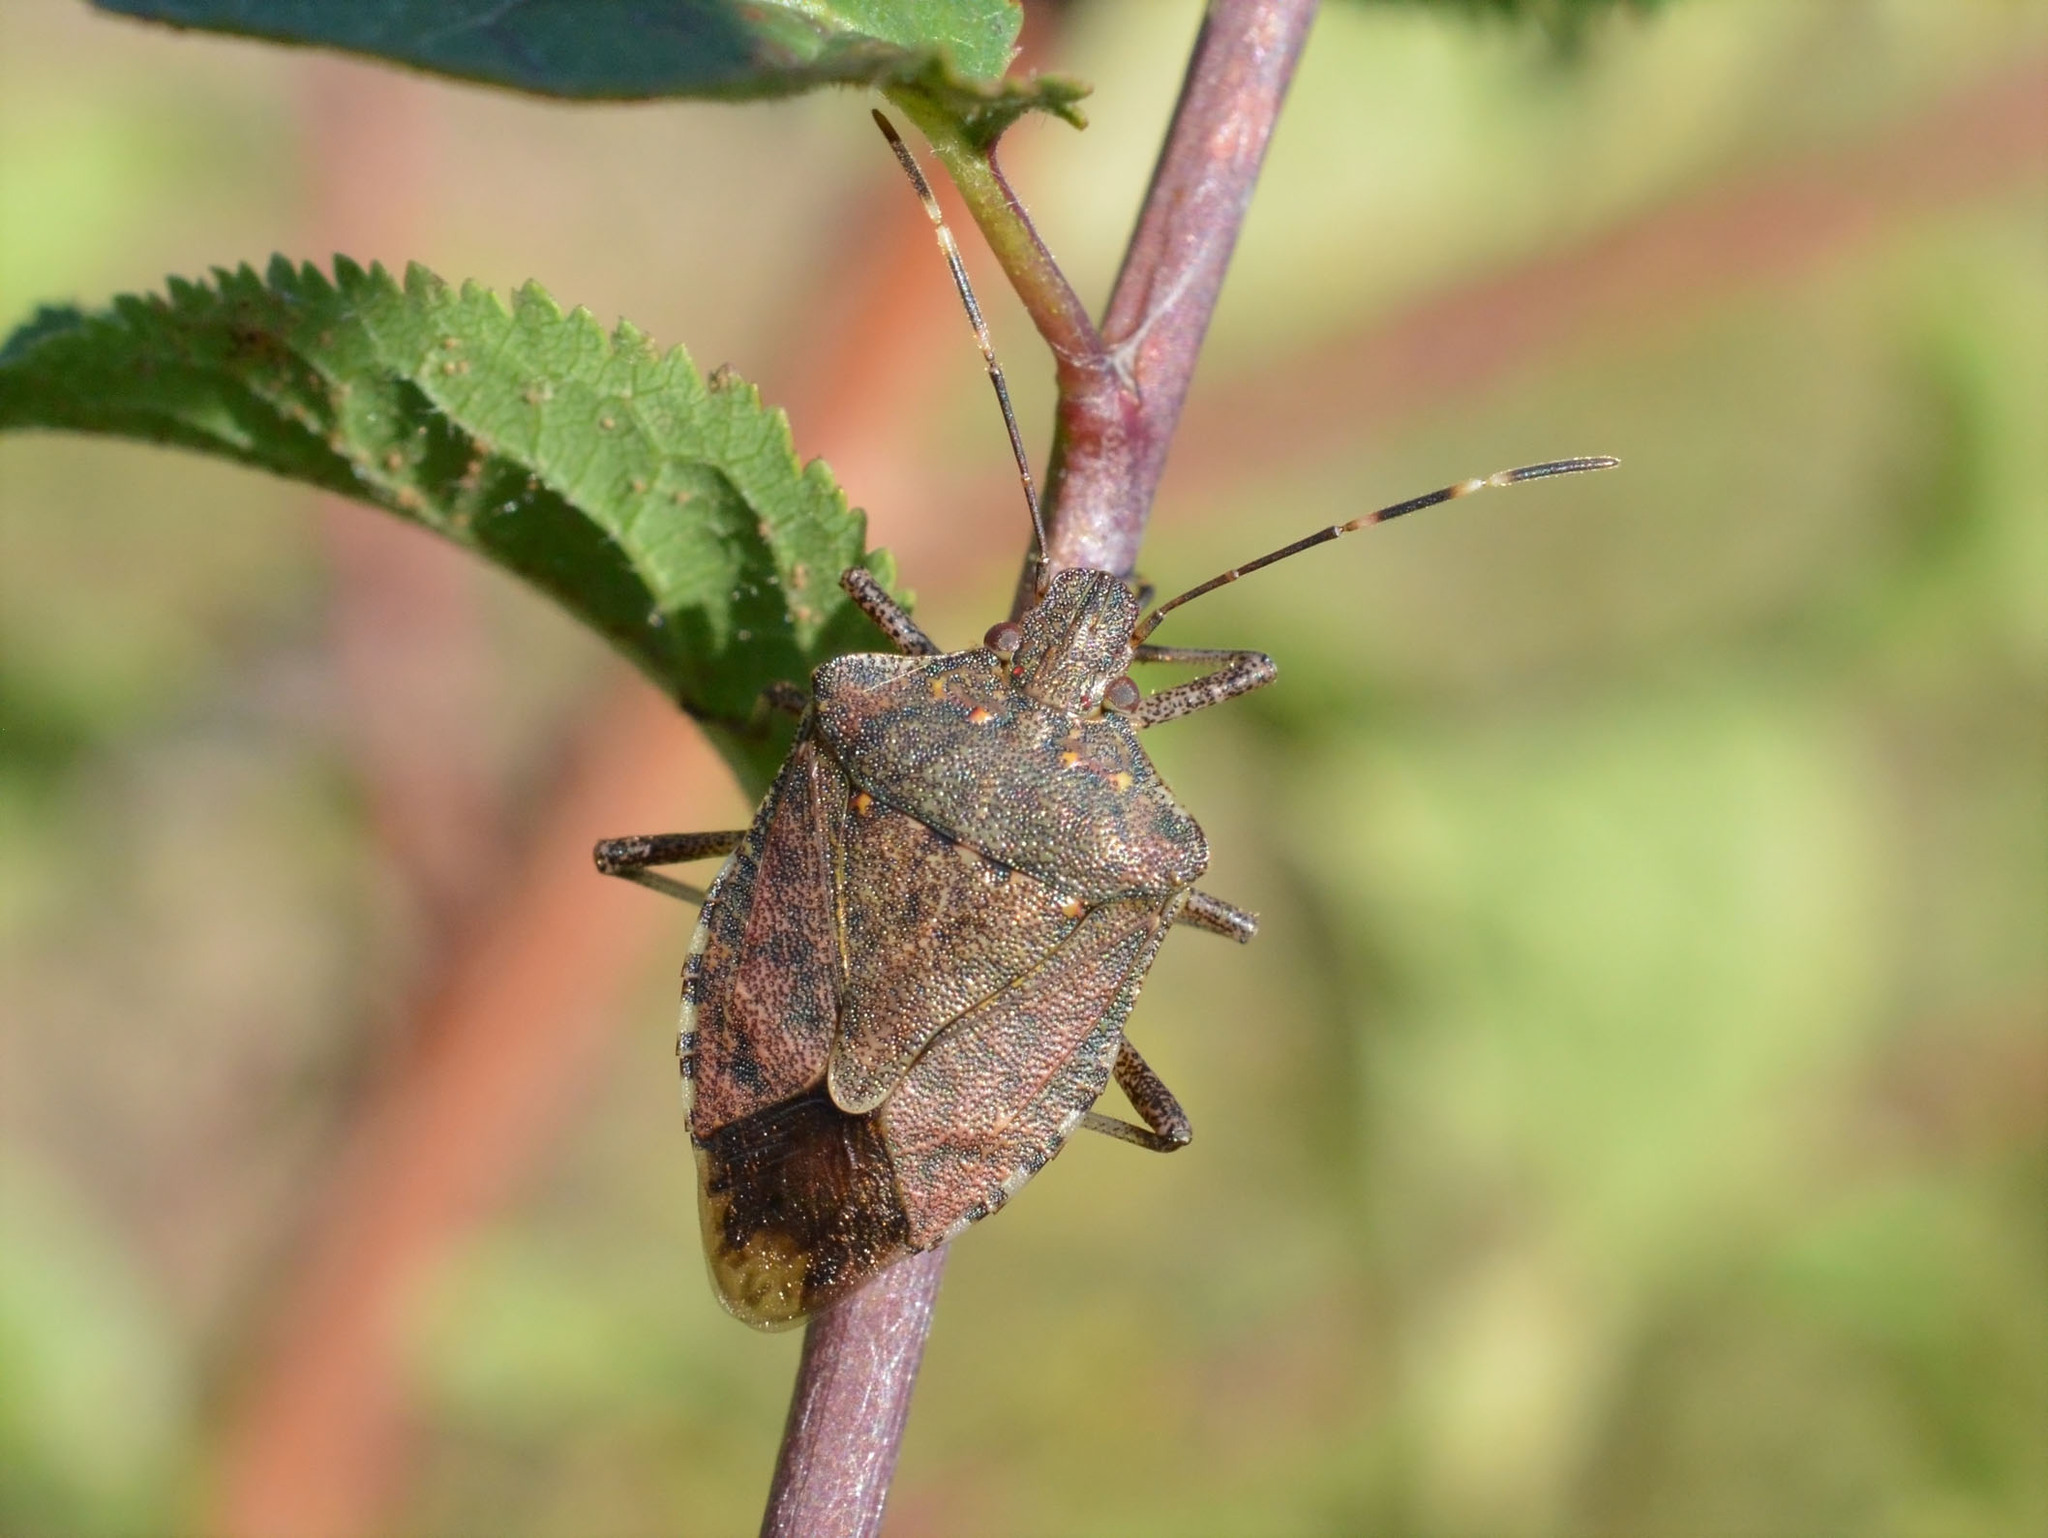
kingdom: Animalia
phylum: Arthropoda
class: Insecta
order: Hemiptera
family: Pentatomidae
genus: Halyomorpha
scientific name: Halyomorpha halys
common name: Brown marmorated stink bug
